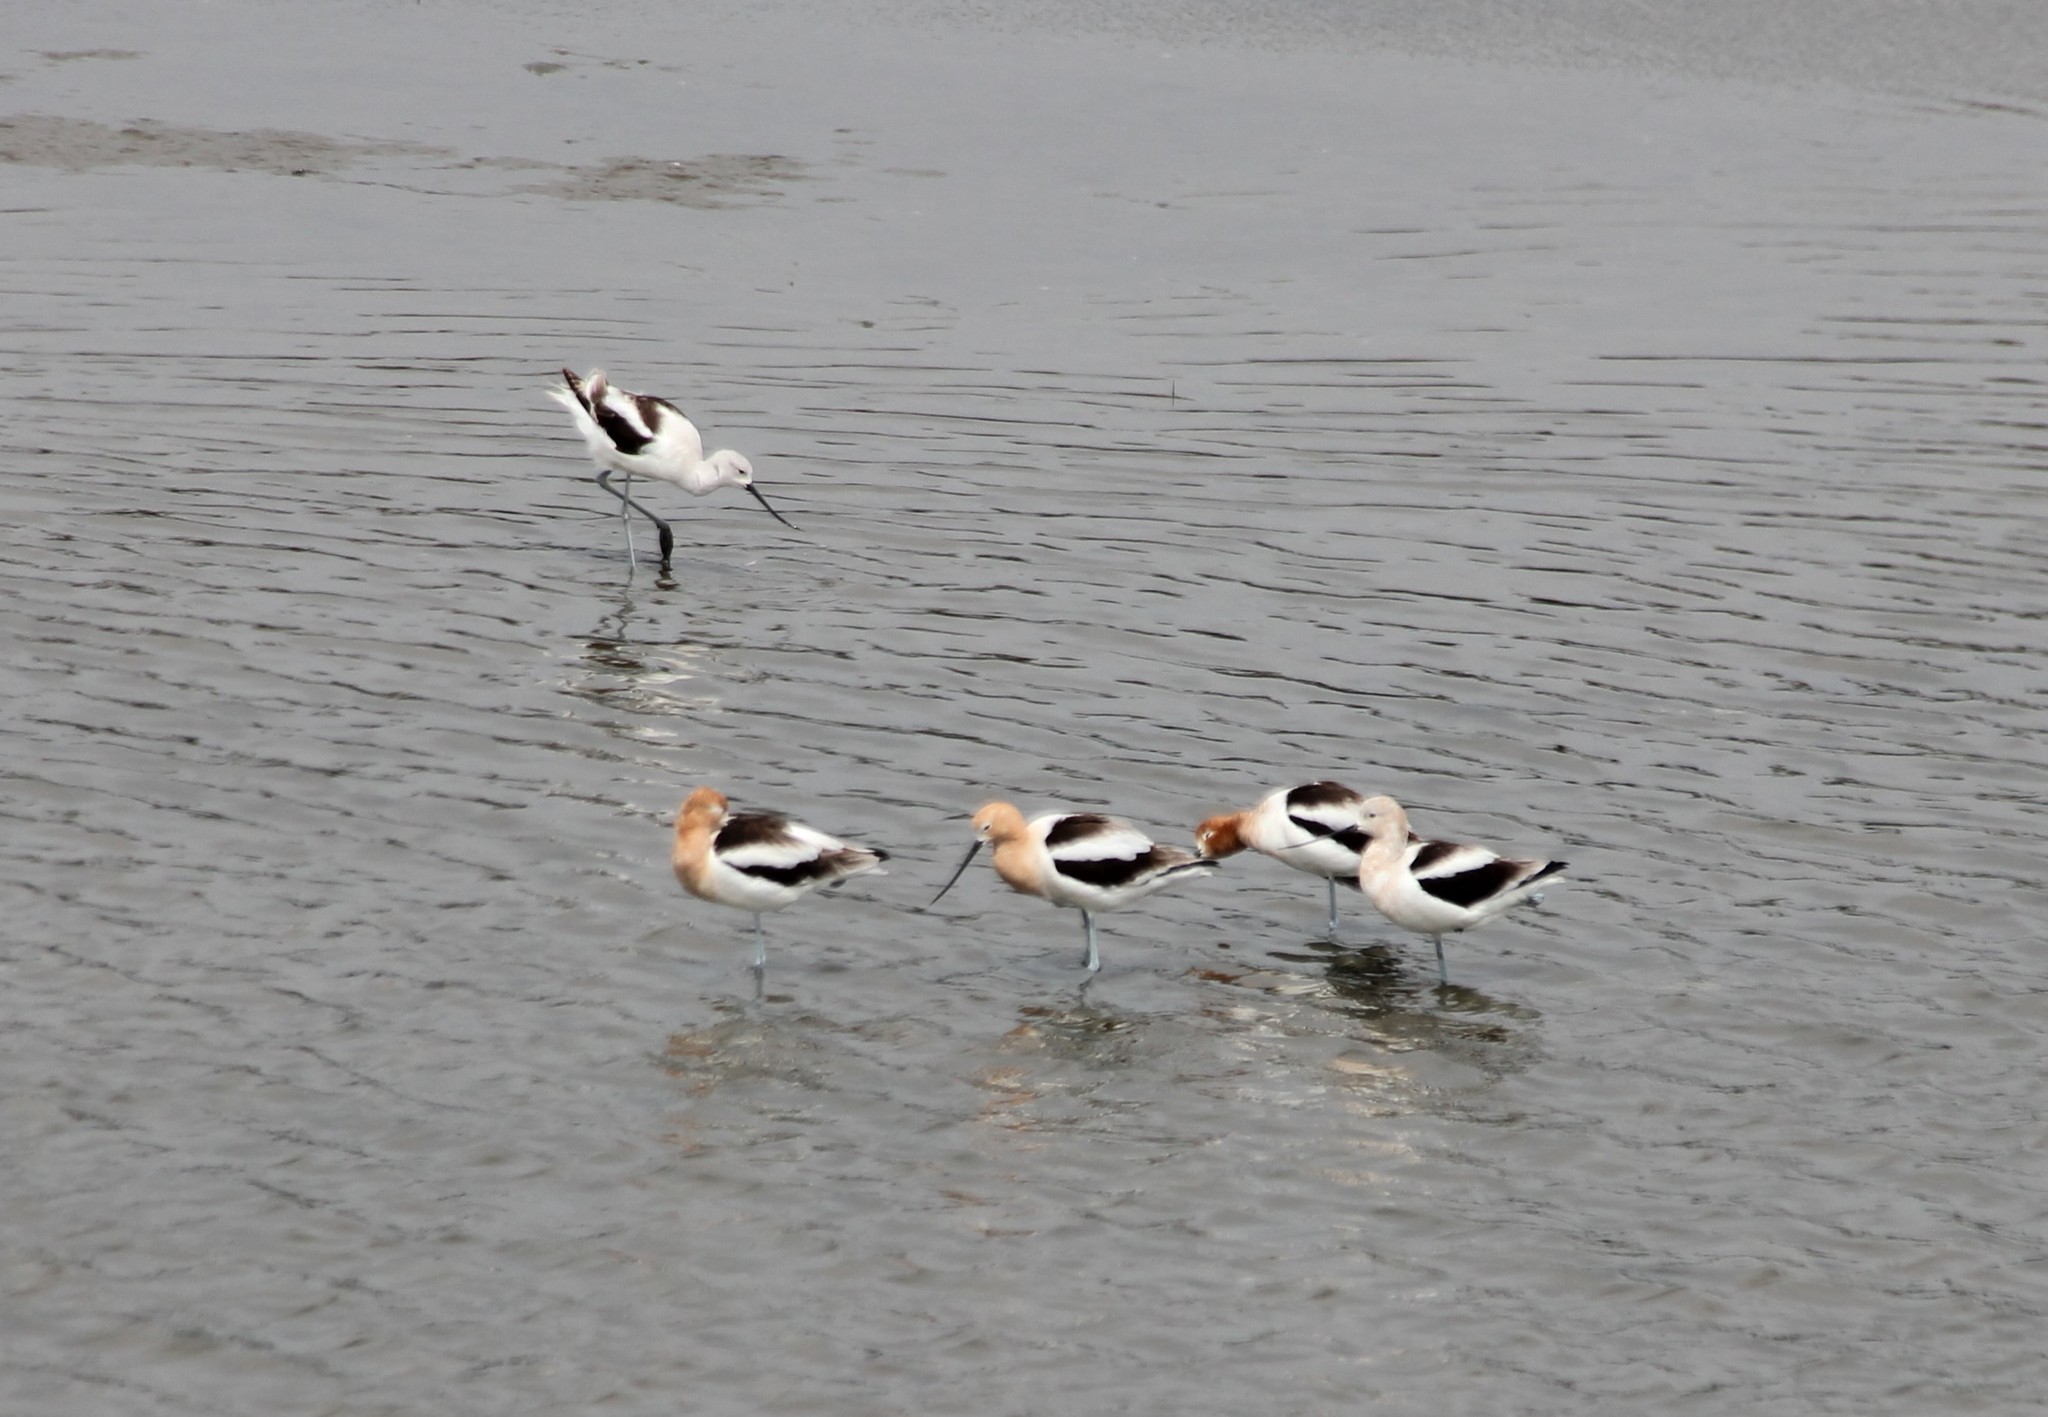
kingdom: Animalia
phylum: Chordata
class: Aves
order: Charadriiformes
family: Recurvirostridae
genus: Recurvirostra
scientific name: Recurvirostra americana
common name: American avocet
